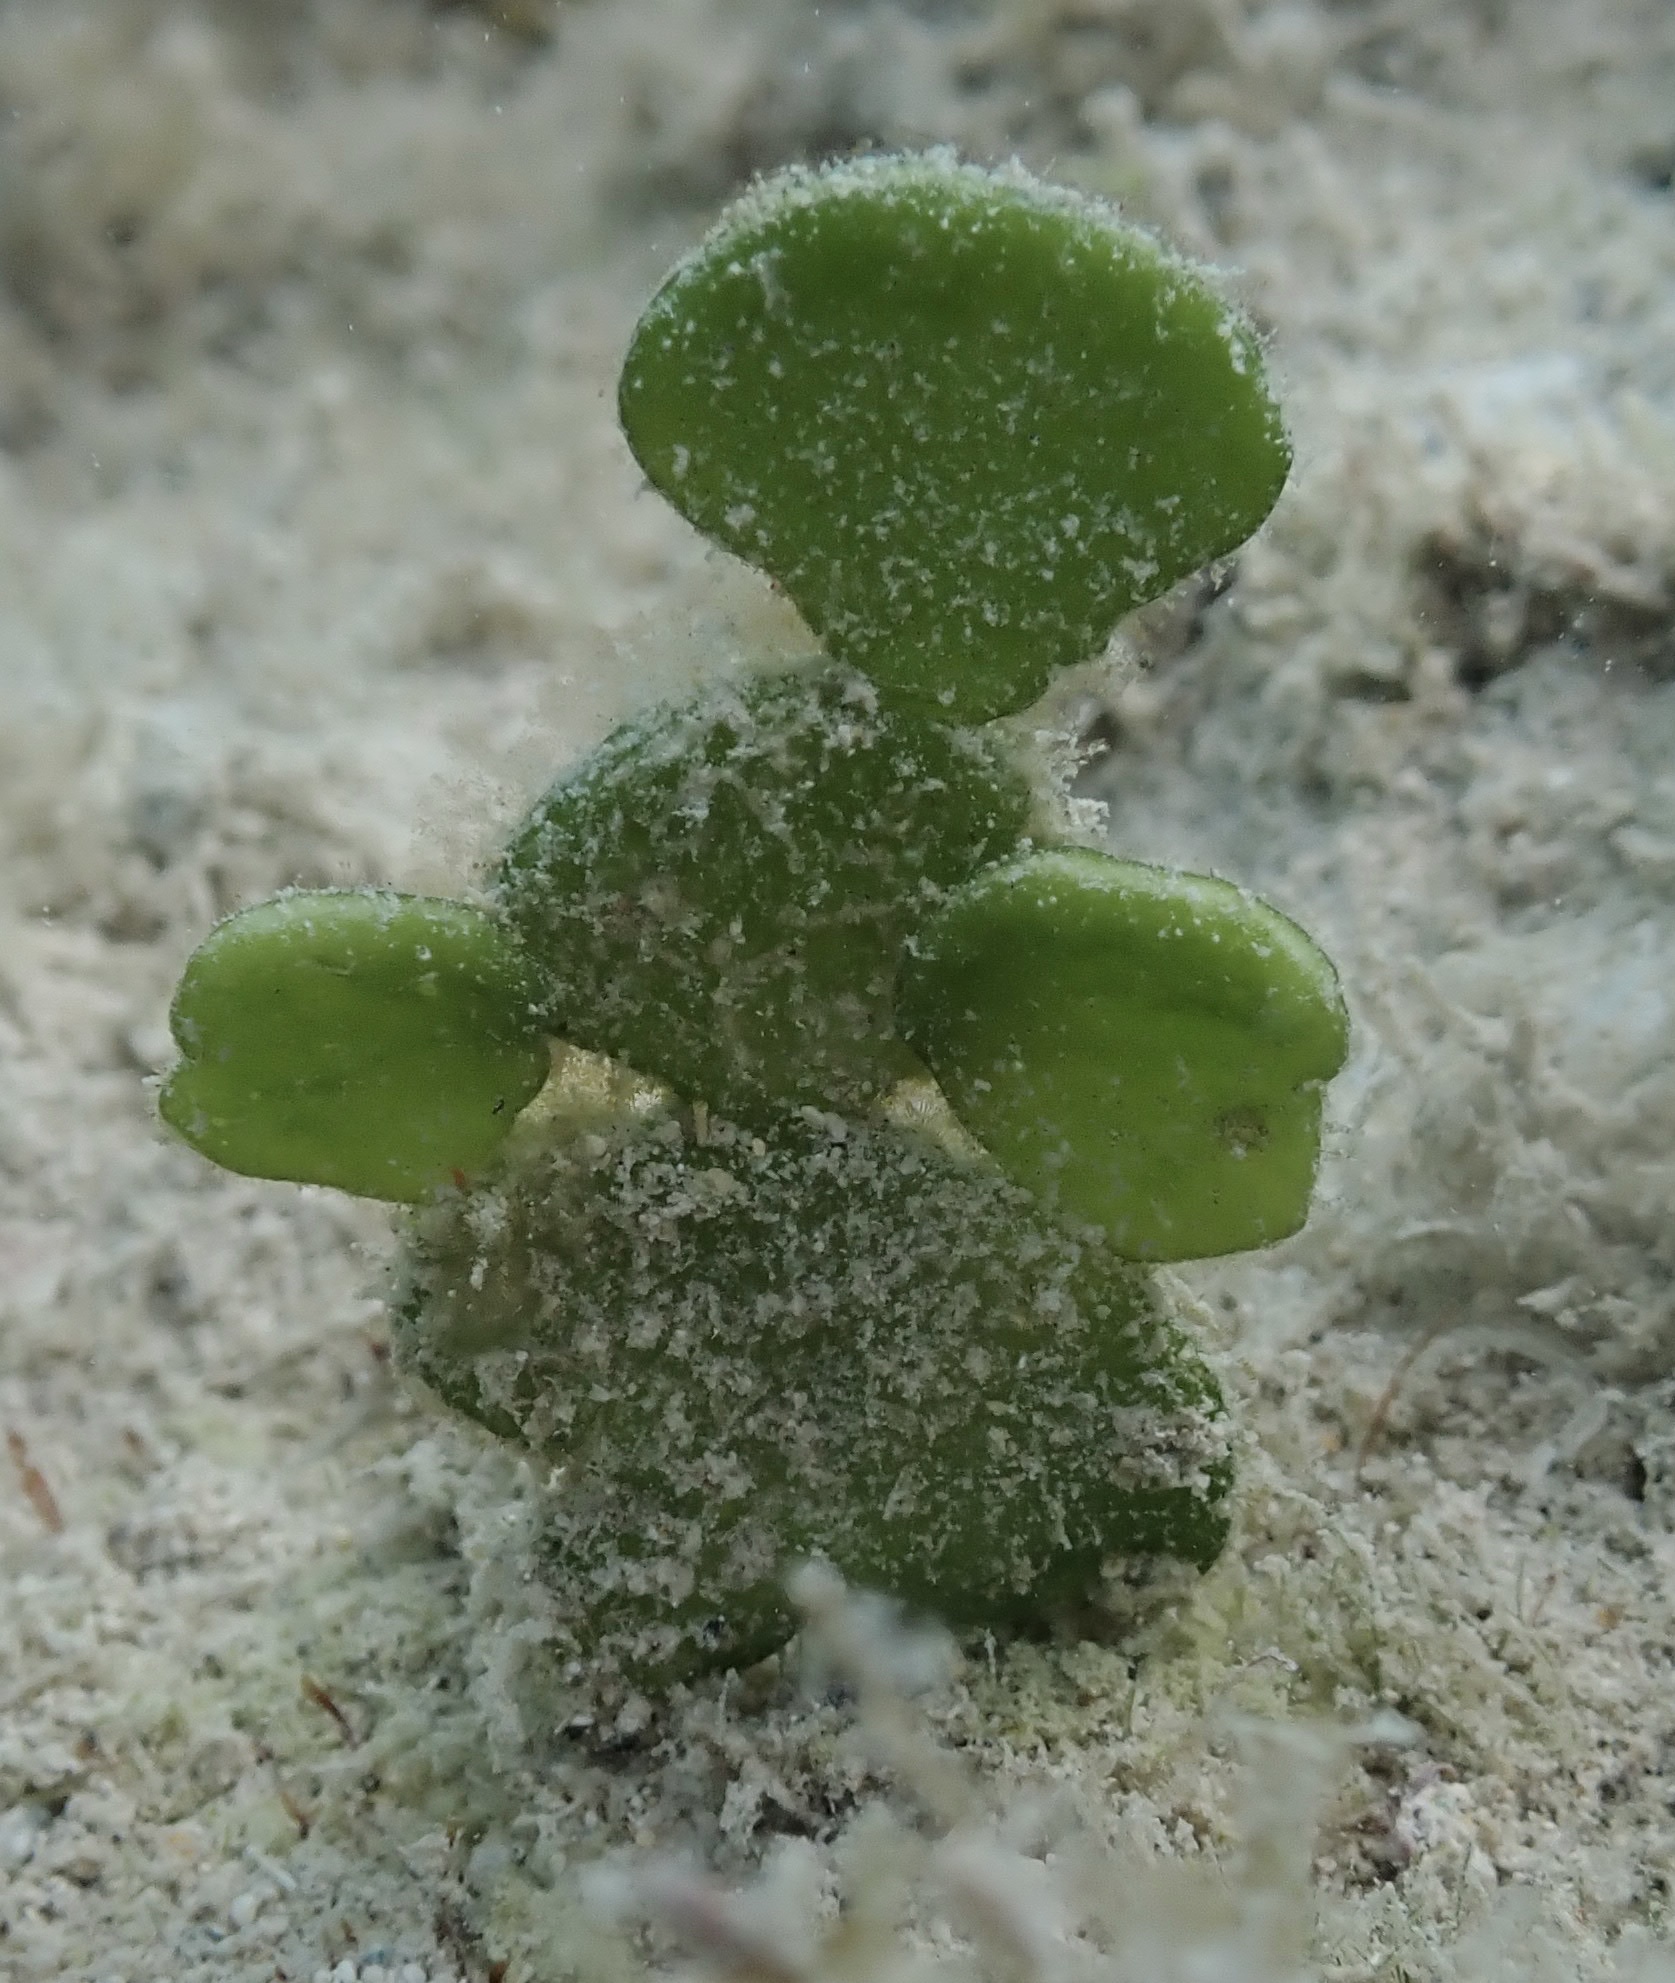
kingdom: Plantae
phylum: Chlorophyta
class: Ulvophyceae
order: Bryopsidales
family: Halimedaceae
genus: Halimeda
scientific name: Halimeda tuna
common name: Stalked lettuce leaf algae
